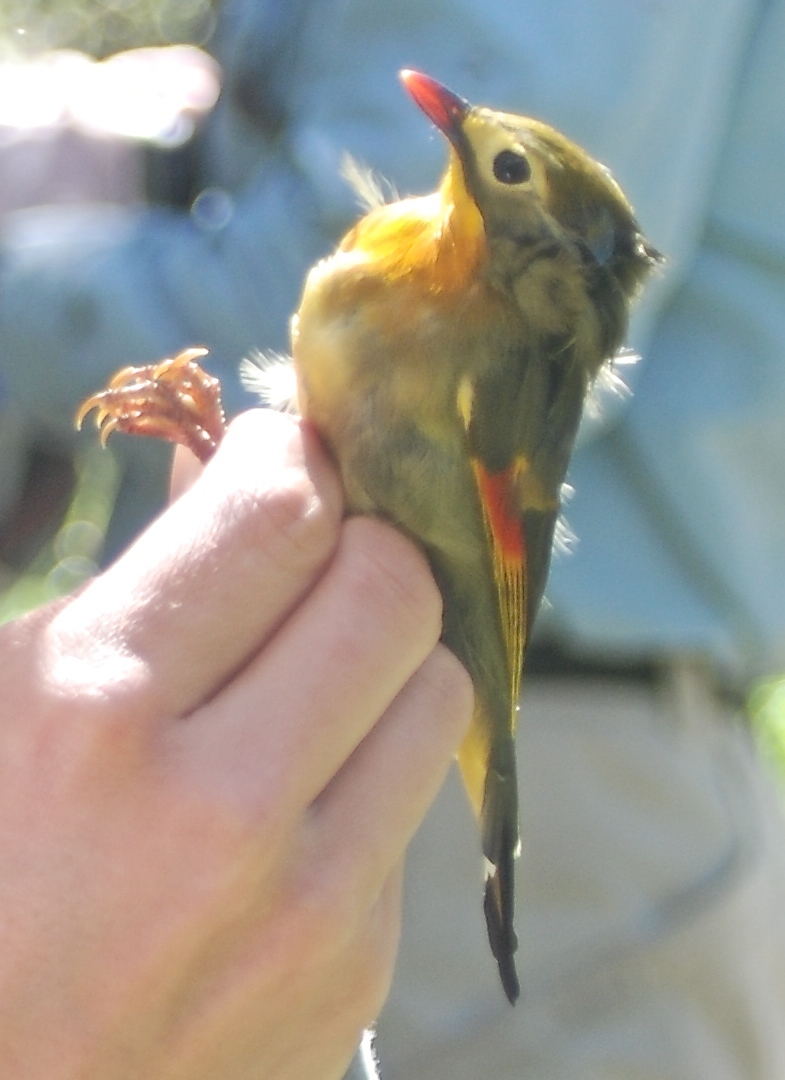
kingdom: Animalia
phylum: Chordata
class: Aves
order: Passeriformes
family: Leiothrichidae
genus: Leiothrix
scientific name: Leiothrix lutea
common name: Red-billed leiothrix
